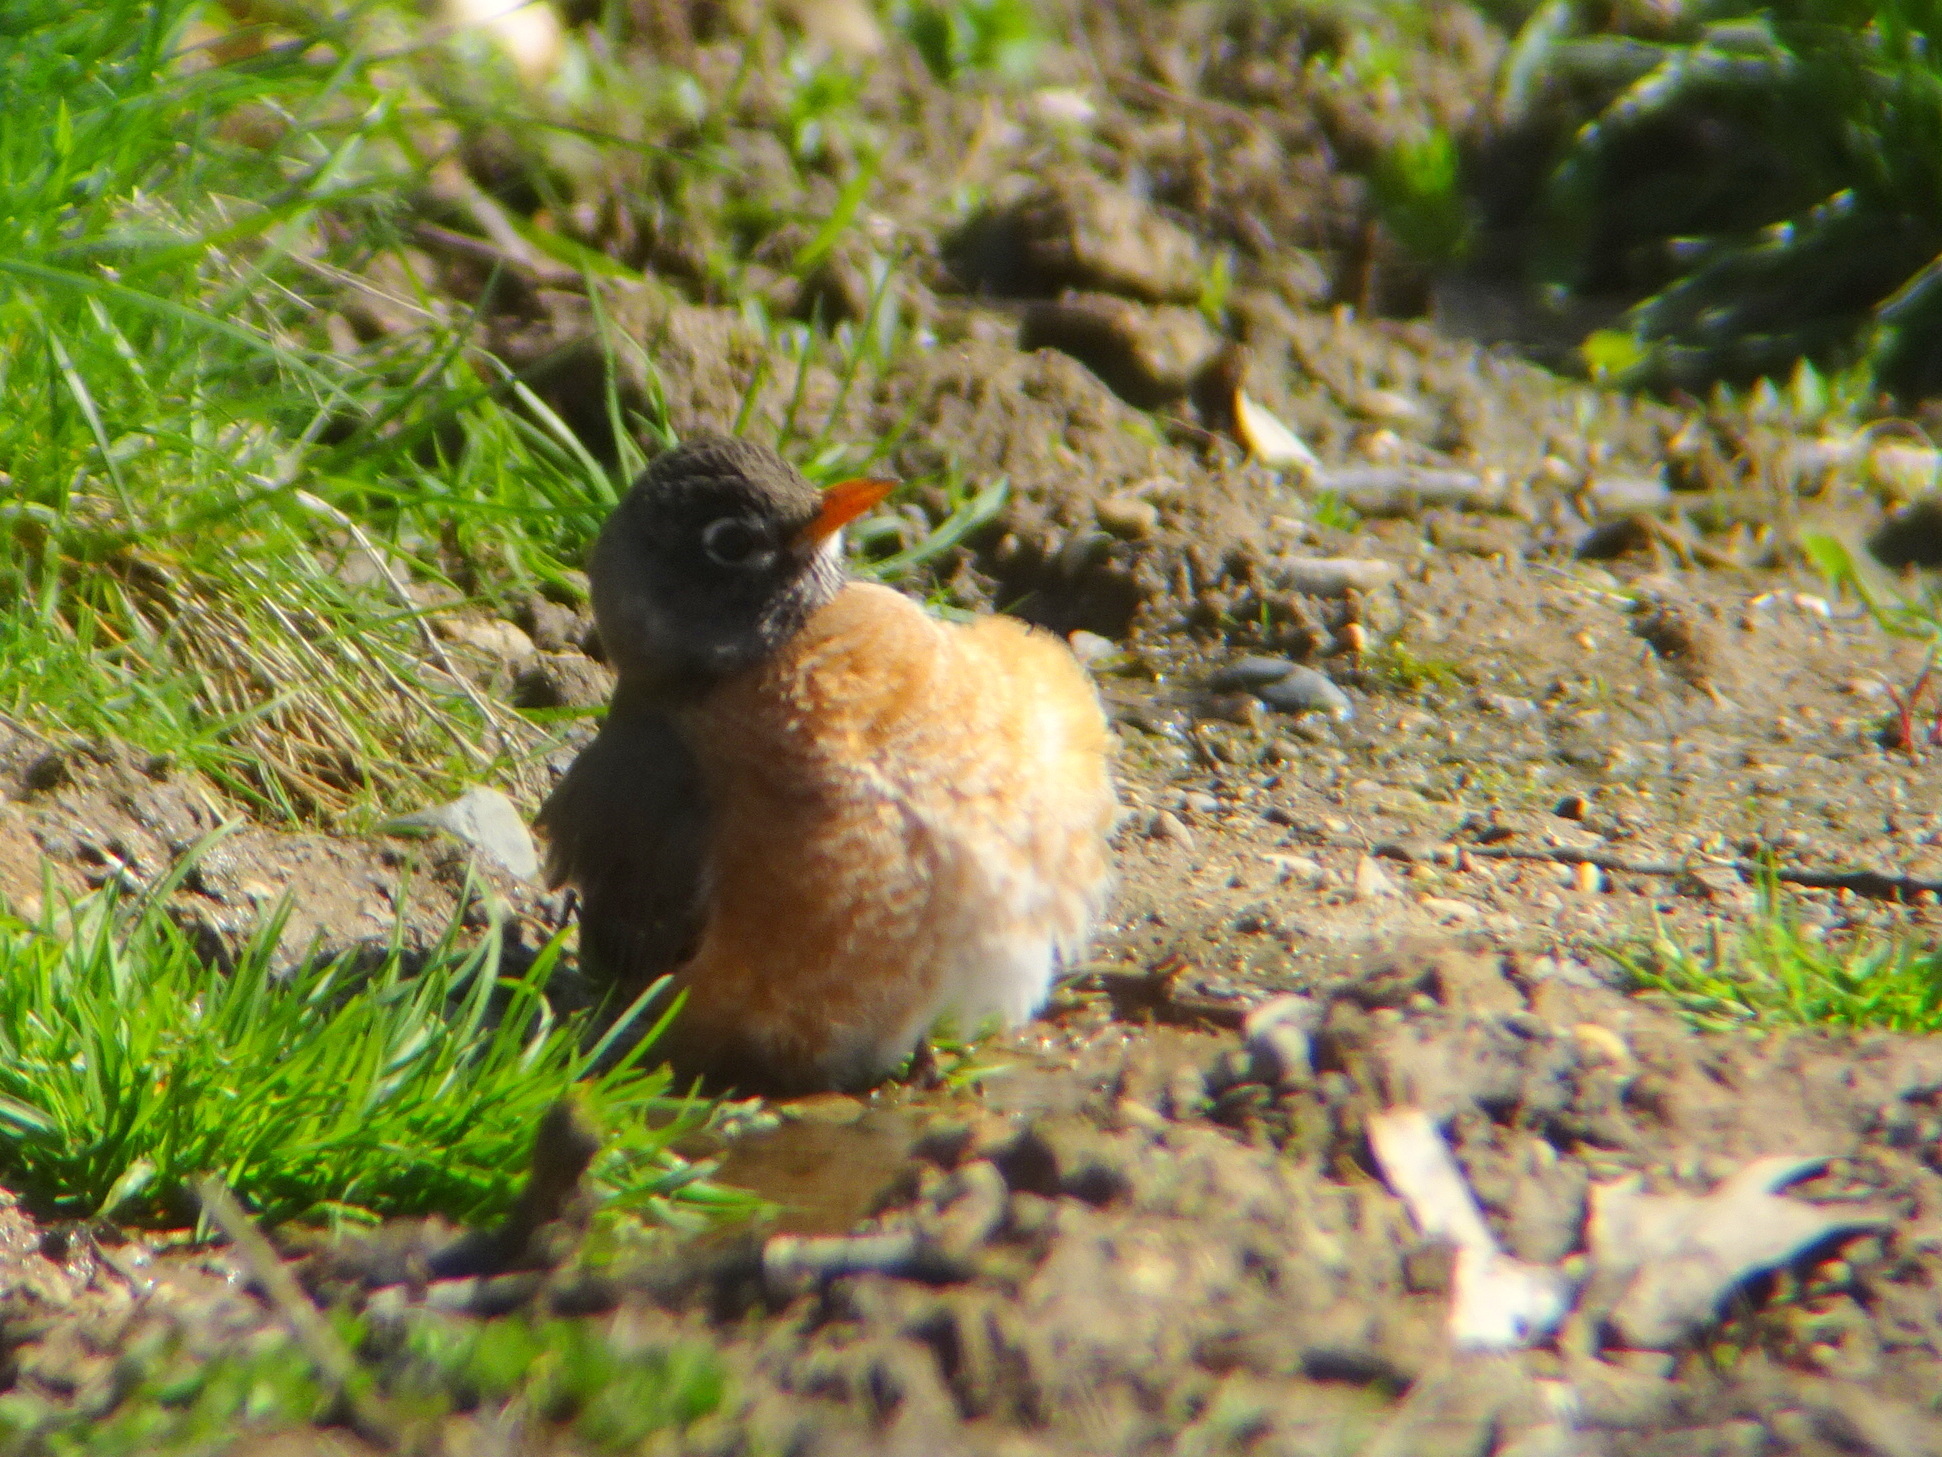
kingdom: Animalia
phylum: Chordata
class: Aves
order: Passeriformes
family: Turdidae
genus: Turdus
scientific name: Turdus migratorius
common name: American robin
